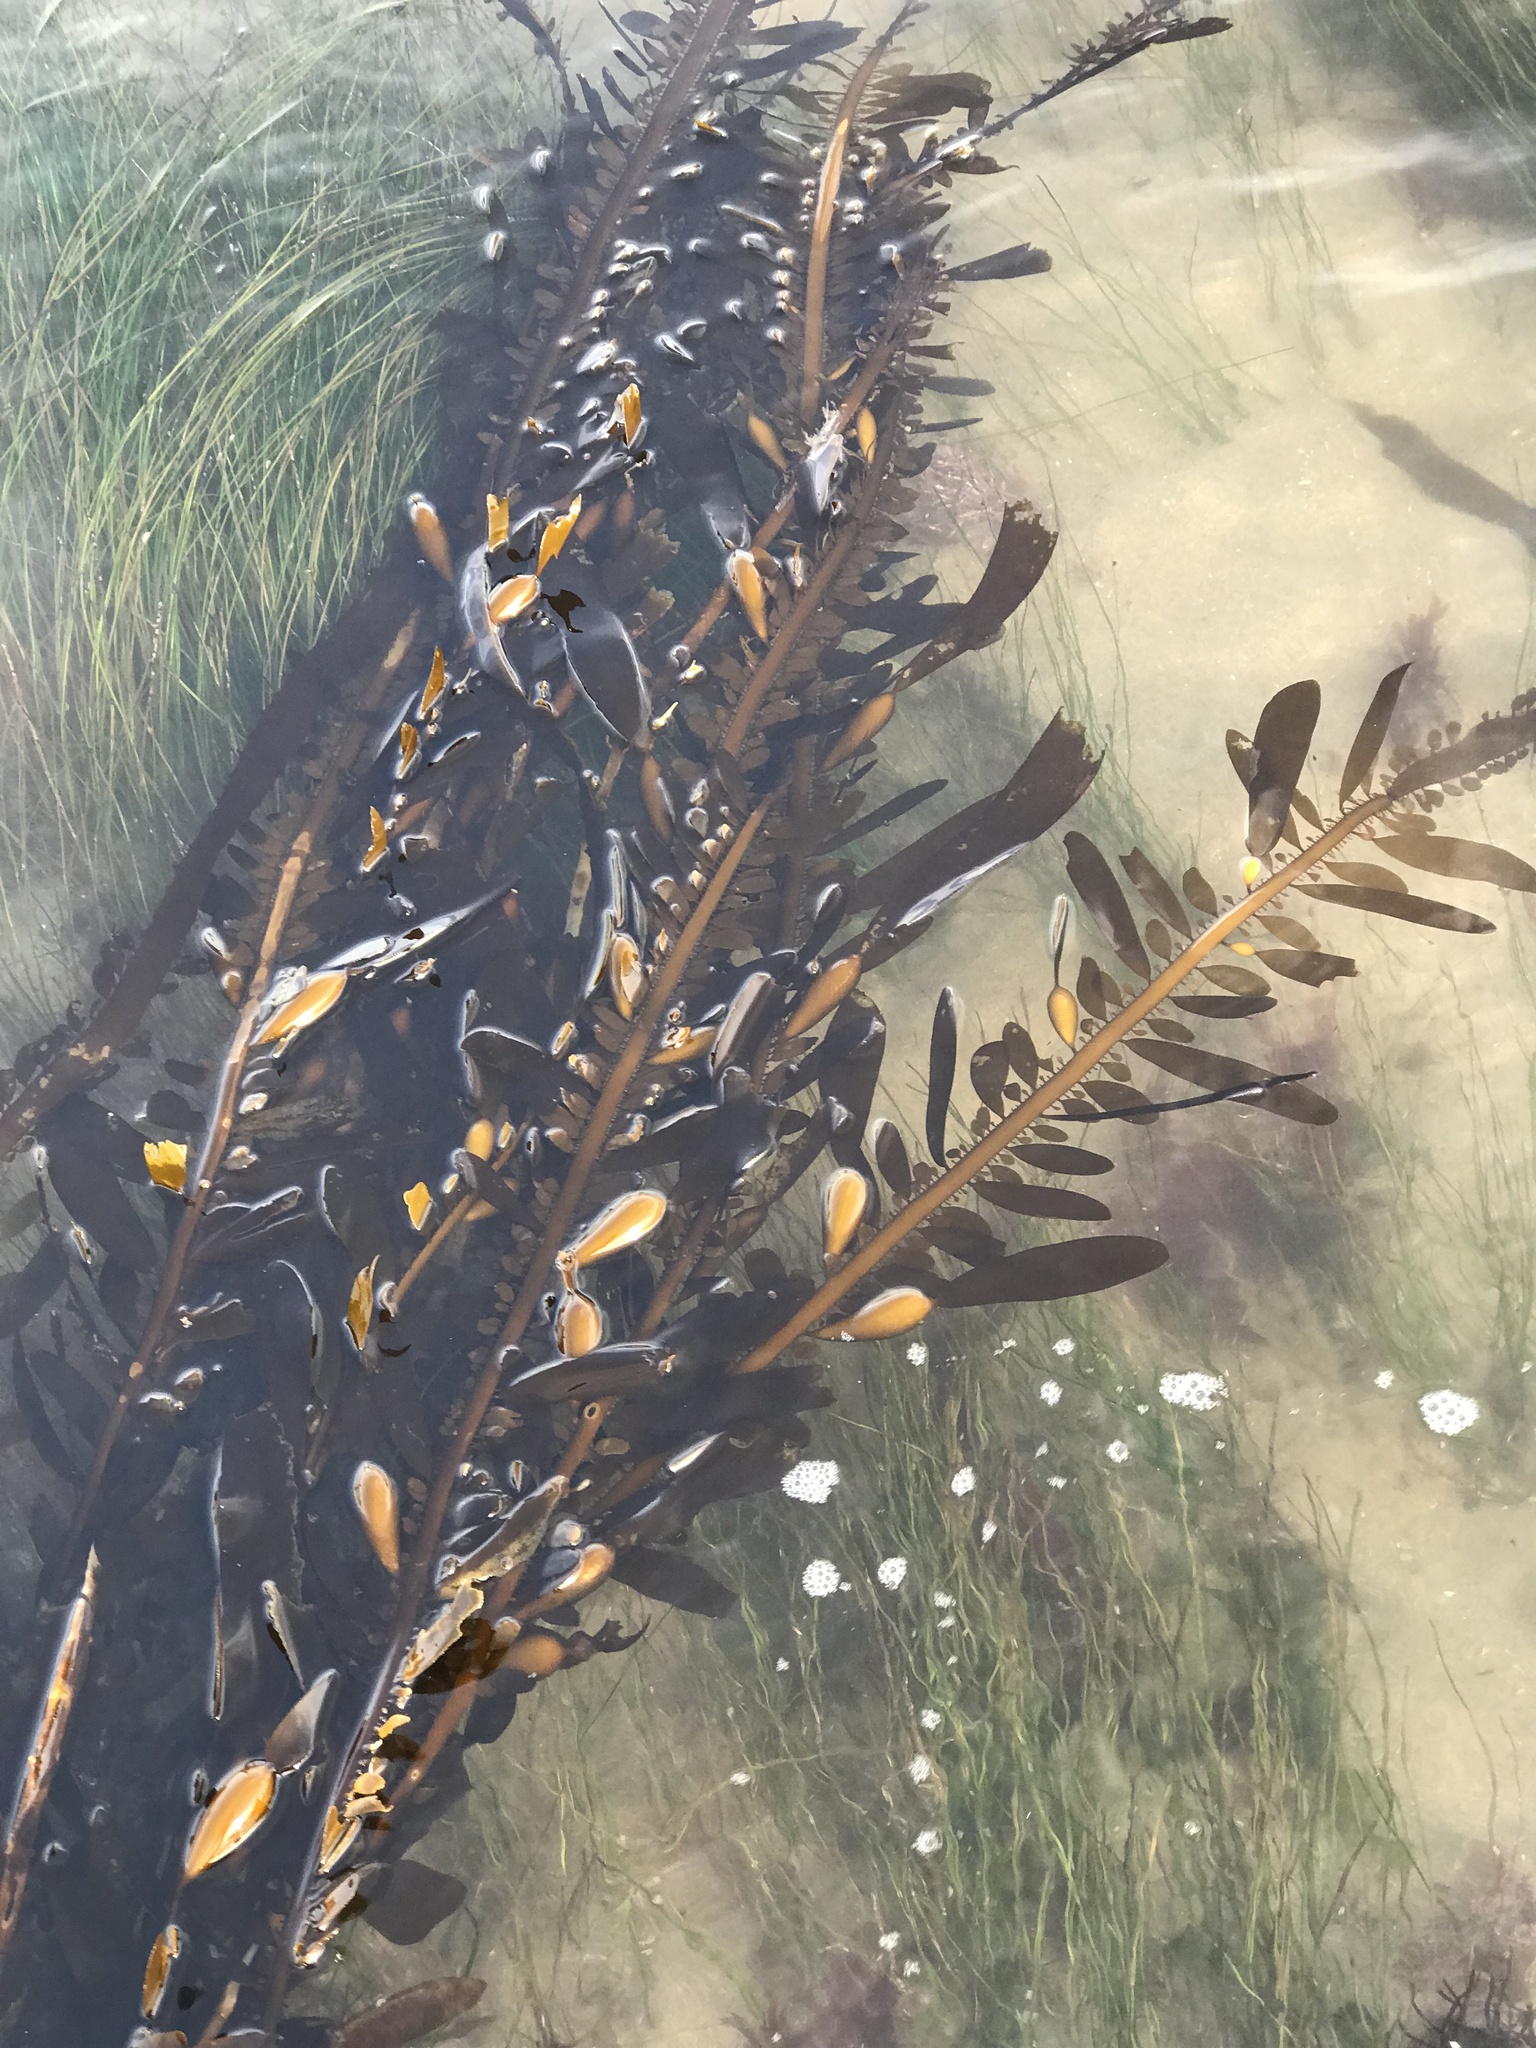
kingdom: Chromista
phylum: Ochrophyta
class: Phaeophyceae
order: Laminariales
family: Lessoniaceae
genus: Egregia
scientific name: Egregia menziesii
